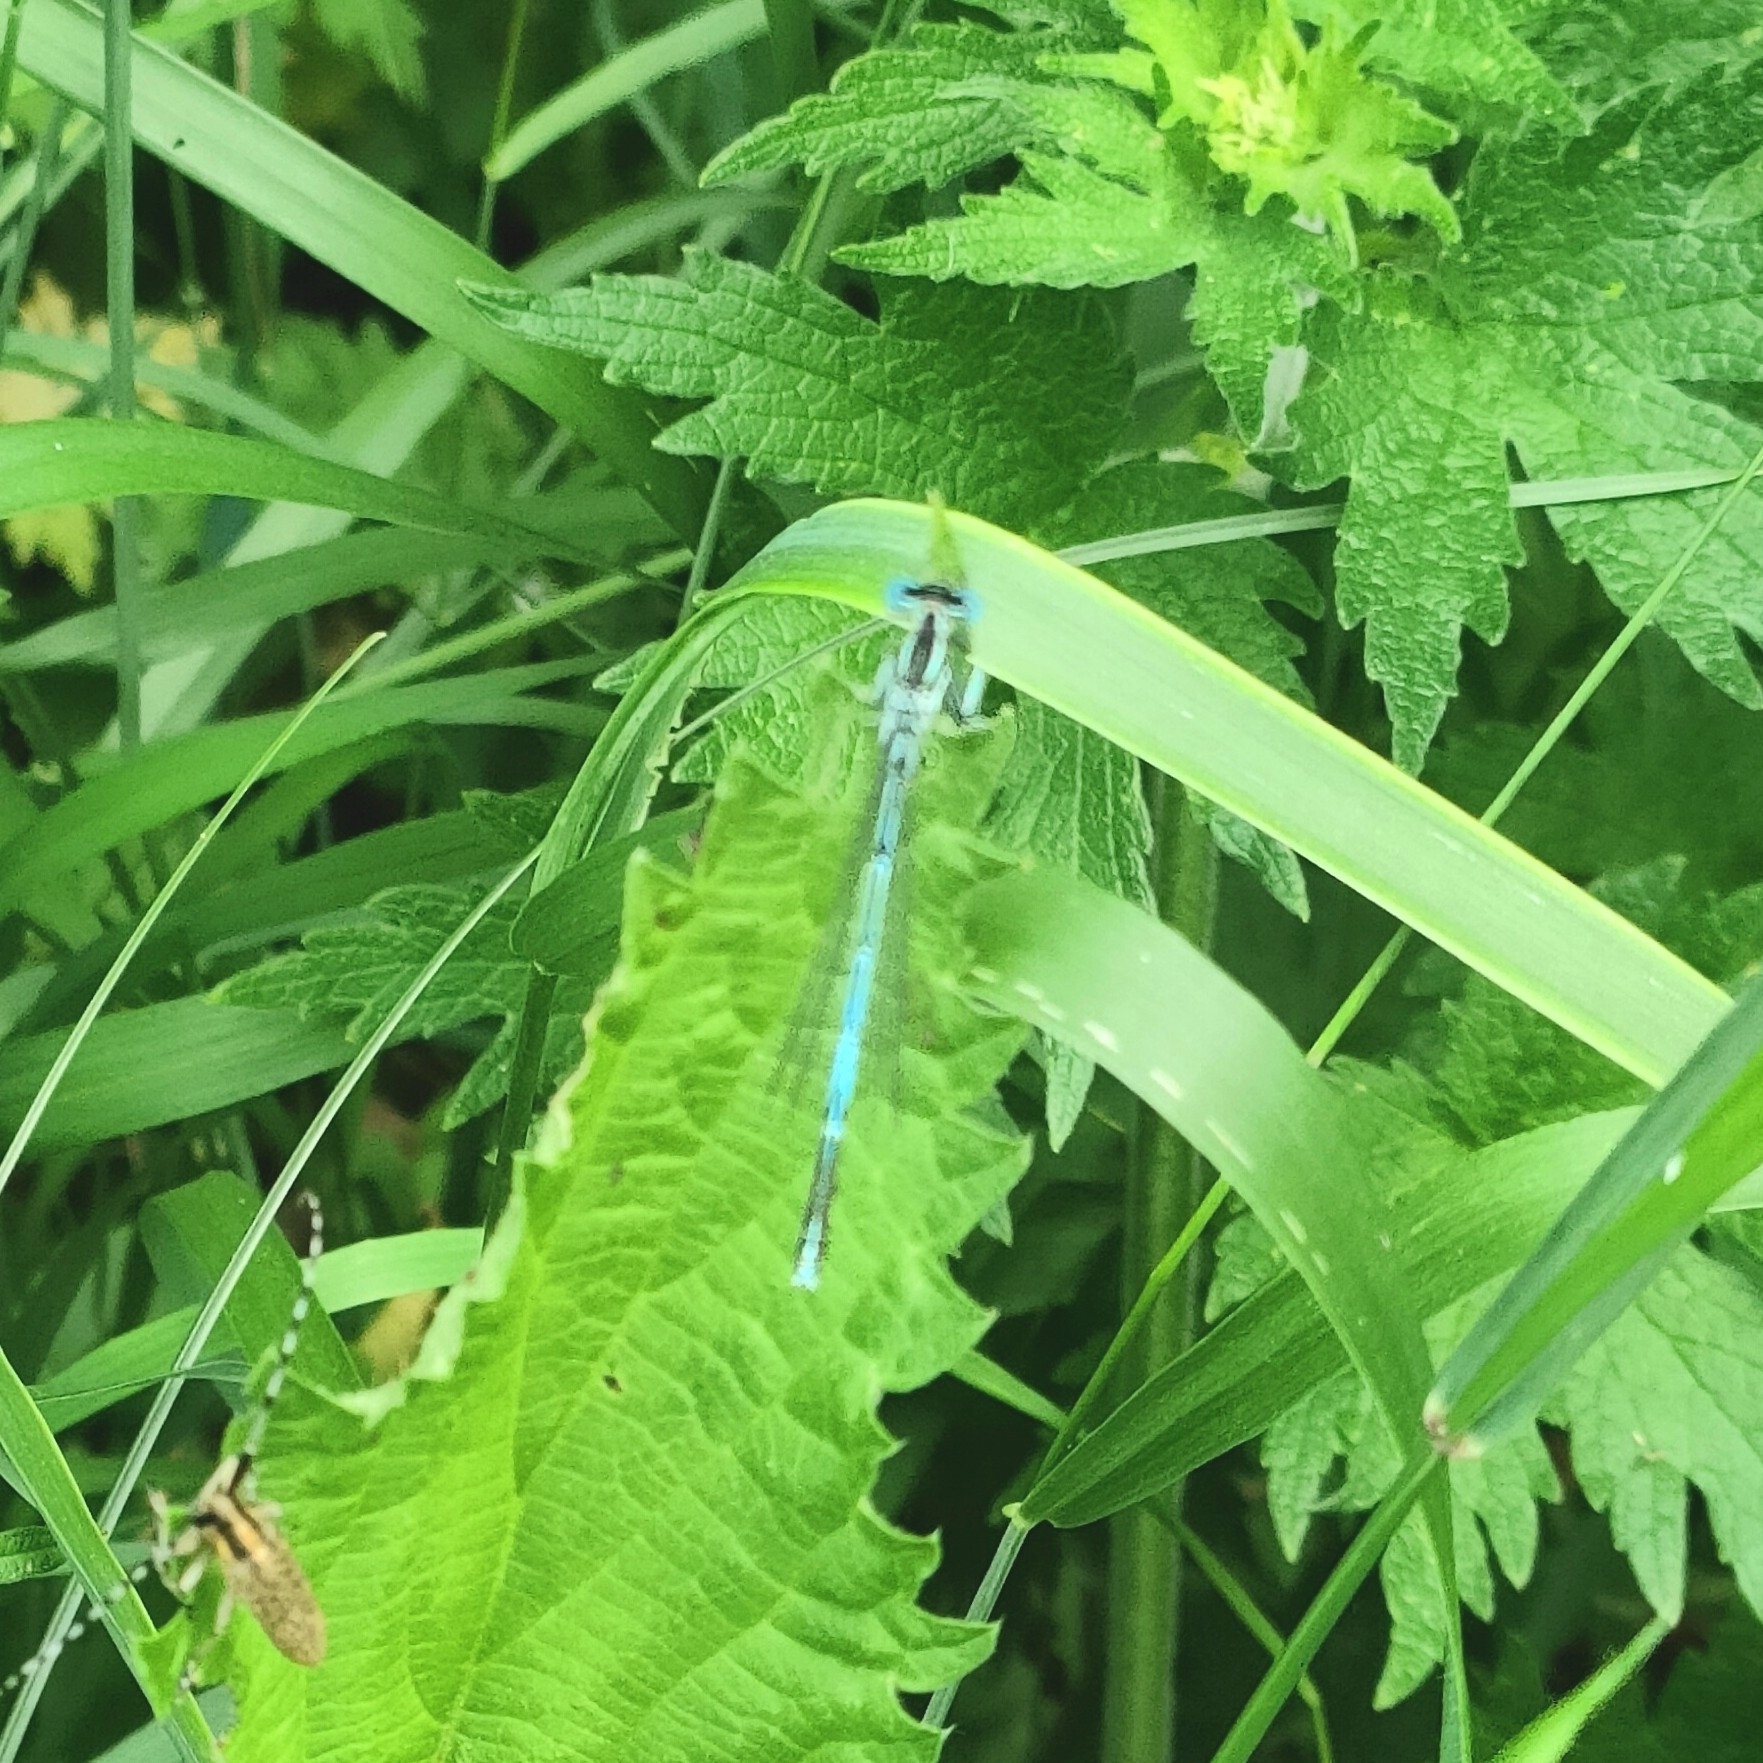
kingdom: Animalia
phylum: Arthropoda
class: Insecta
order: Odonata
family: Platycnemididae
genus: Platycnemis
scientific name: Platycnemis pennipes
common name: White-legged damselfly
